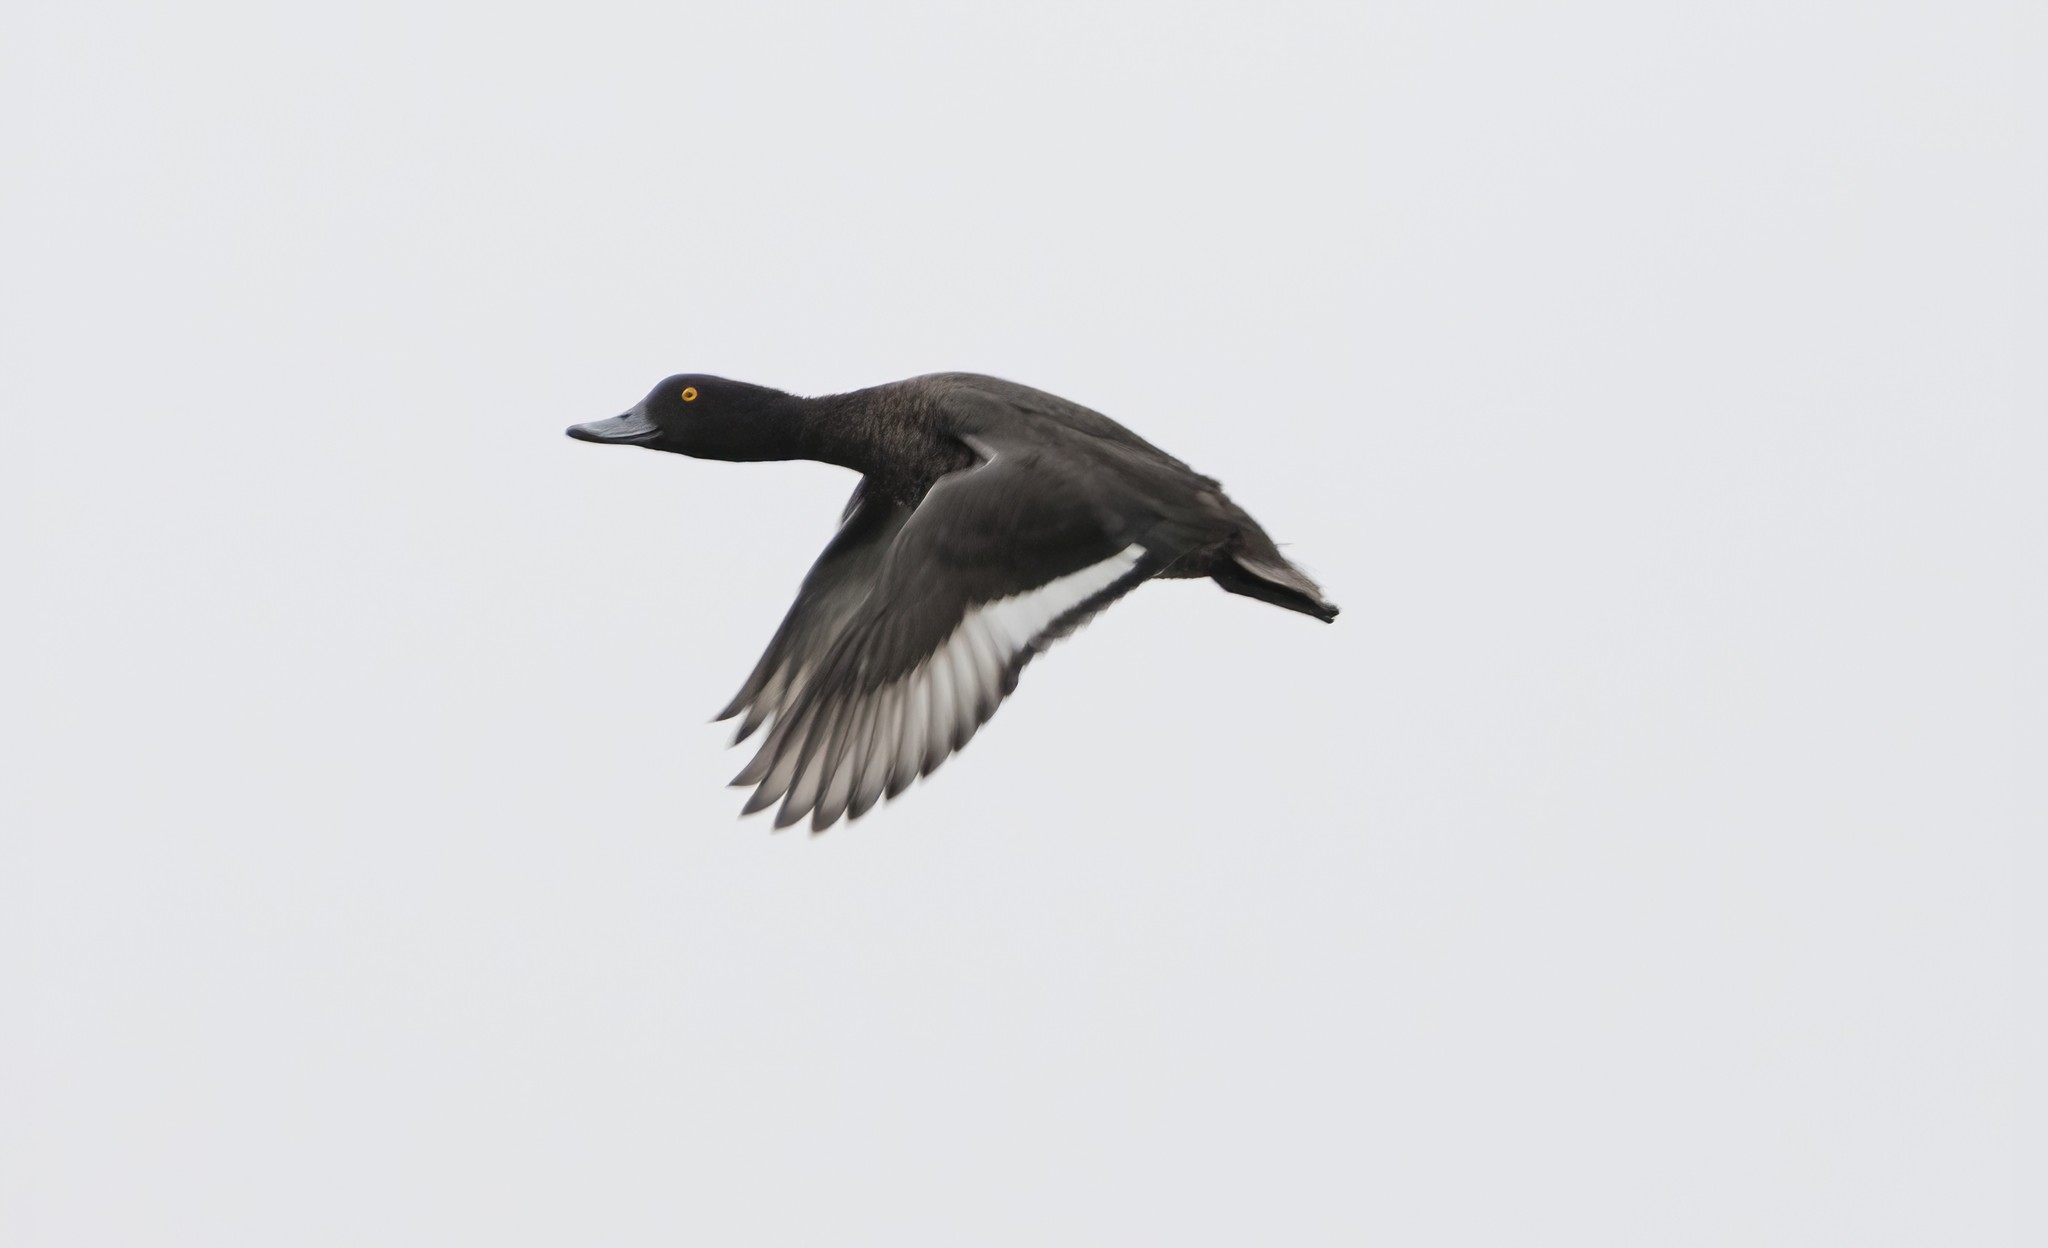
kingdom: Animalia
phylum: Chordata
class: Aves
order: Anseriformes
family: Anatidae
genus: Aythya
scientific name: Aythya fuligula
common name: Tufted duck
